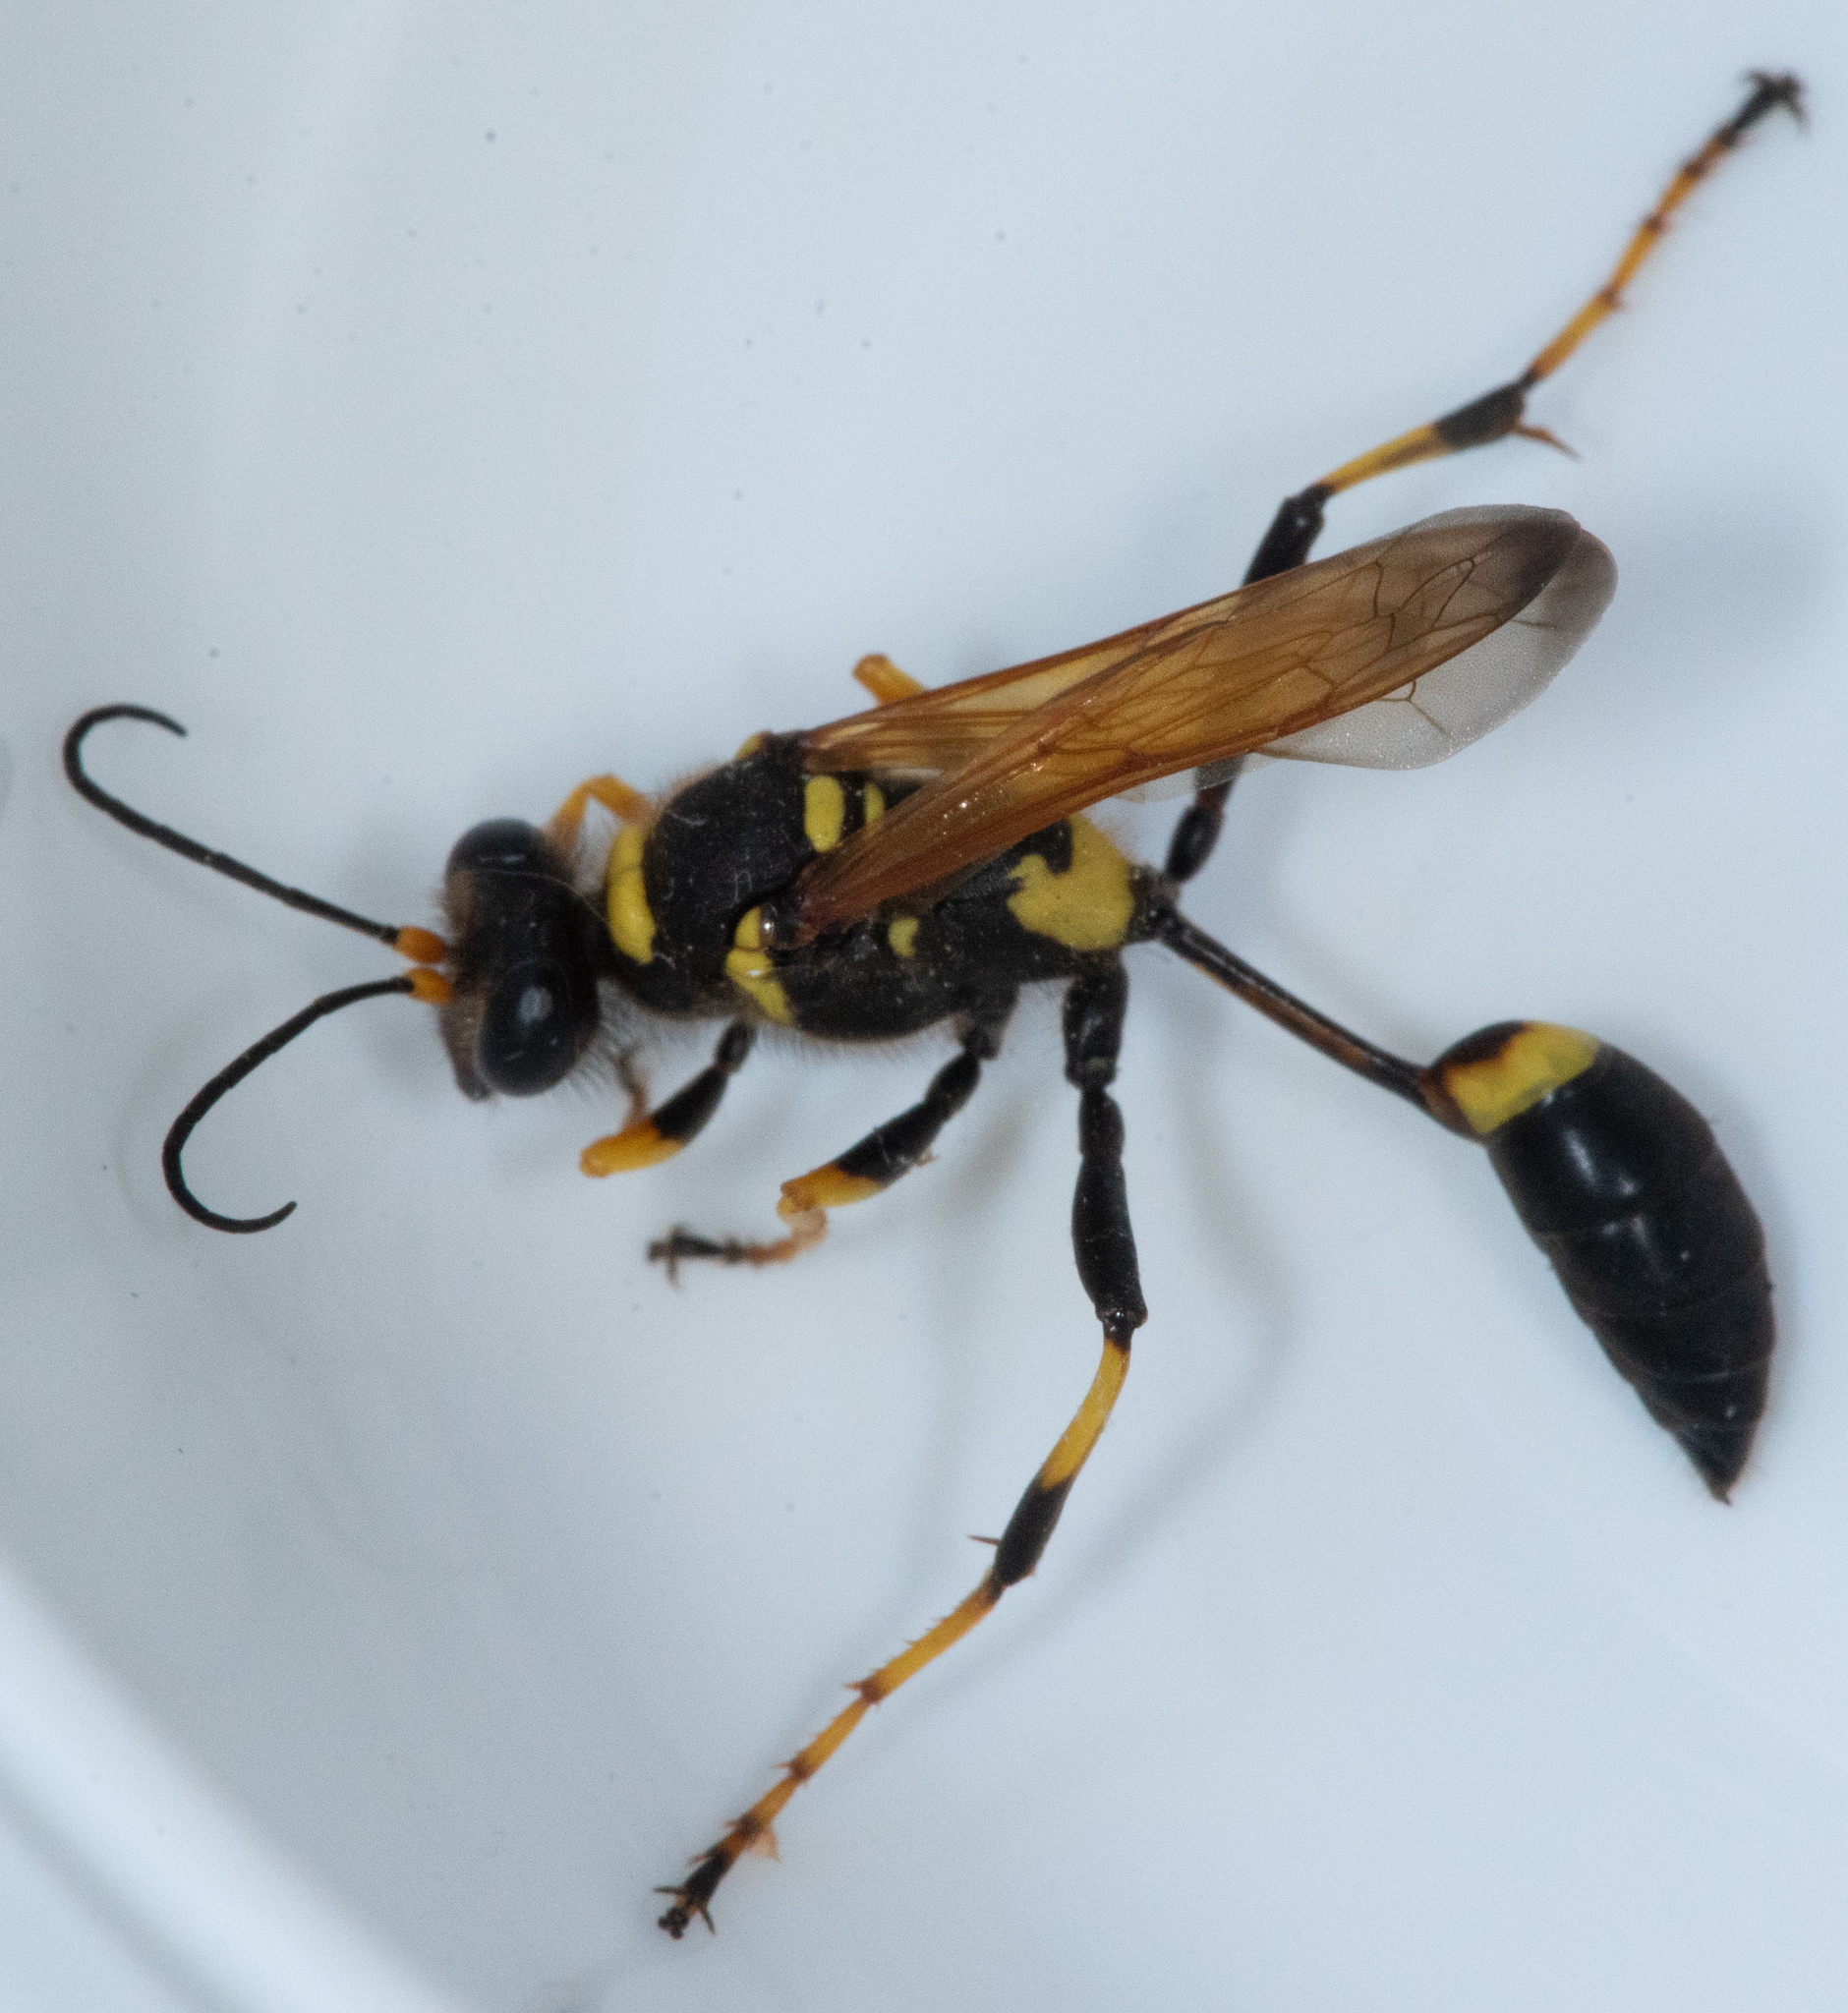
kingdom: Animalia
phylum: Arthropoda
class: Insecta
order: Hymenoptera
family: Sphecidae
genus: Sceliphron
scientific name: Sceliphron caementarium
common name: Mud dauber
